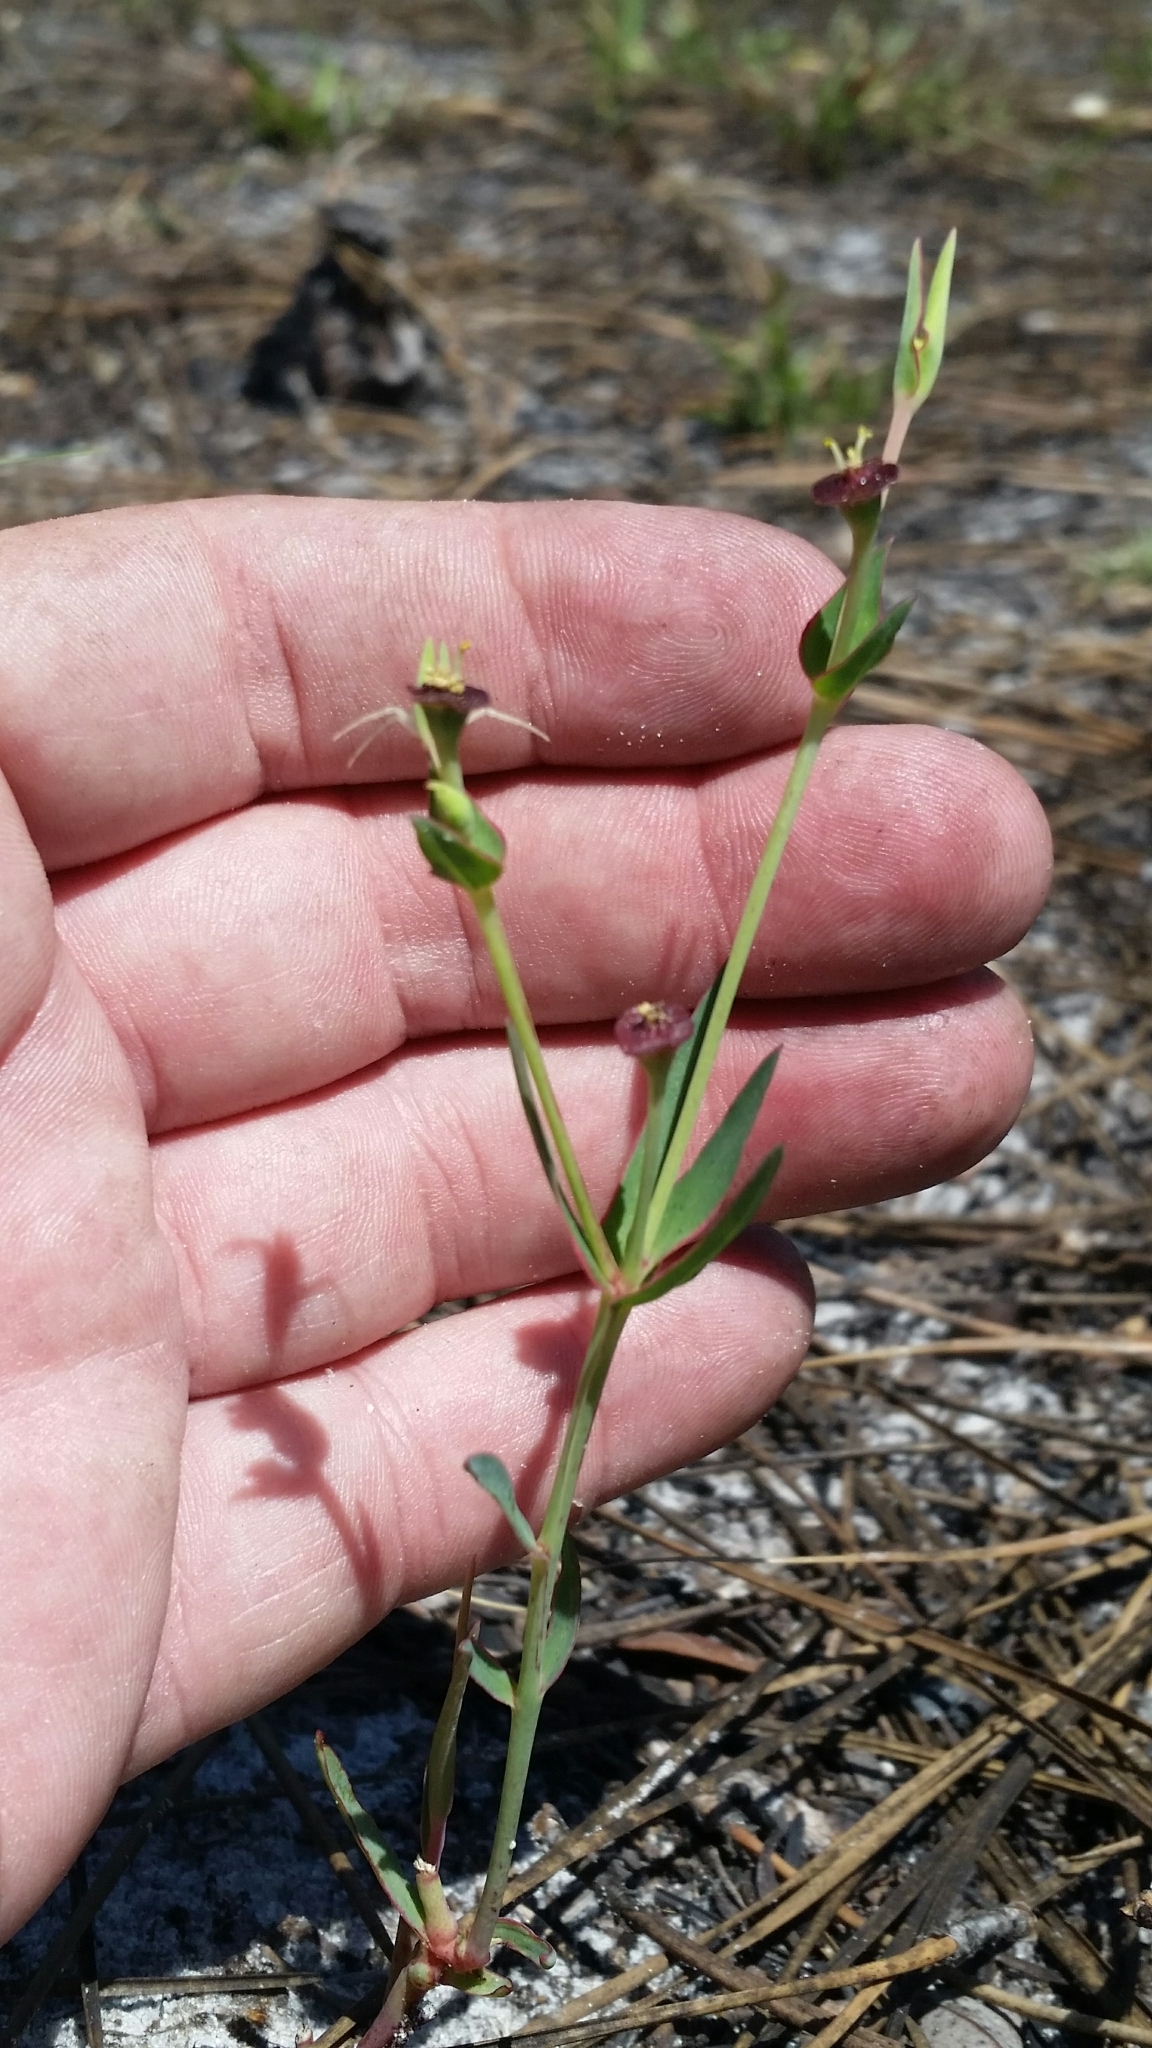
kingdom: Plantae
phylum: Tracheophyta
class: Magnoliopsida
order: Malpighiales
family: Euphorbiaceae
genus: Euphorbia
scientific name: Euphorbia inundata
